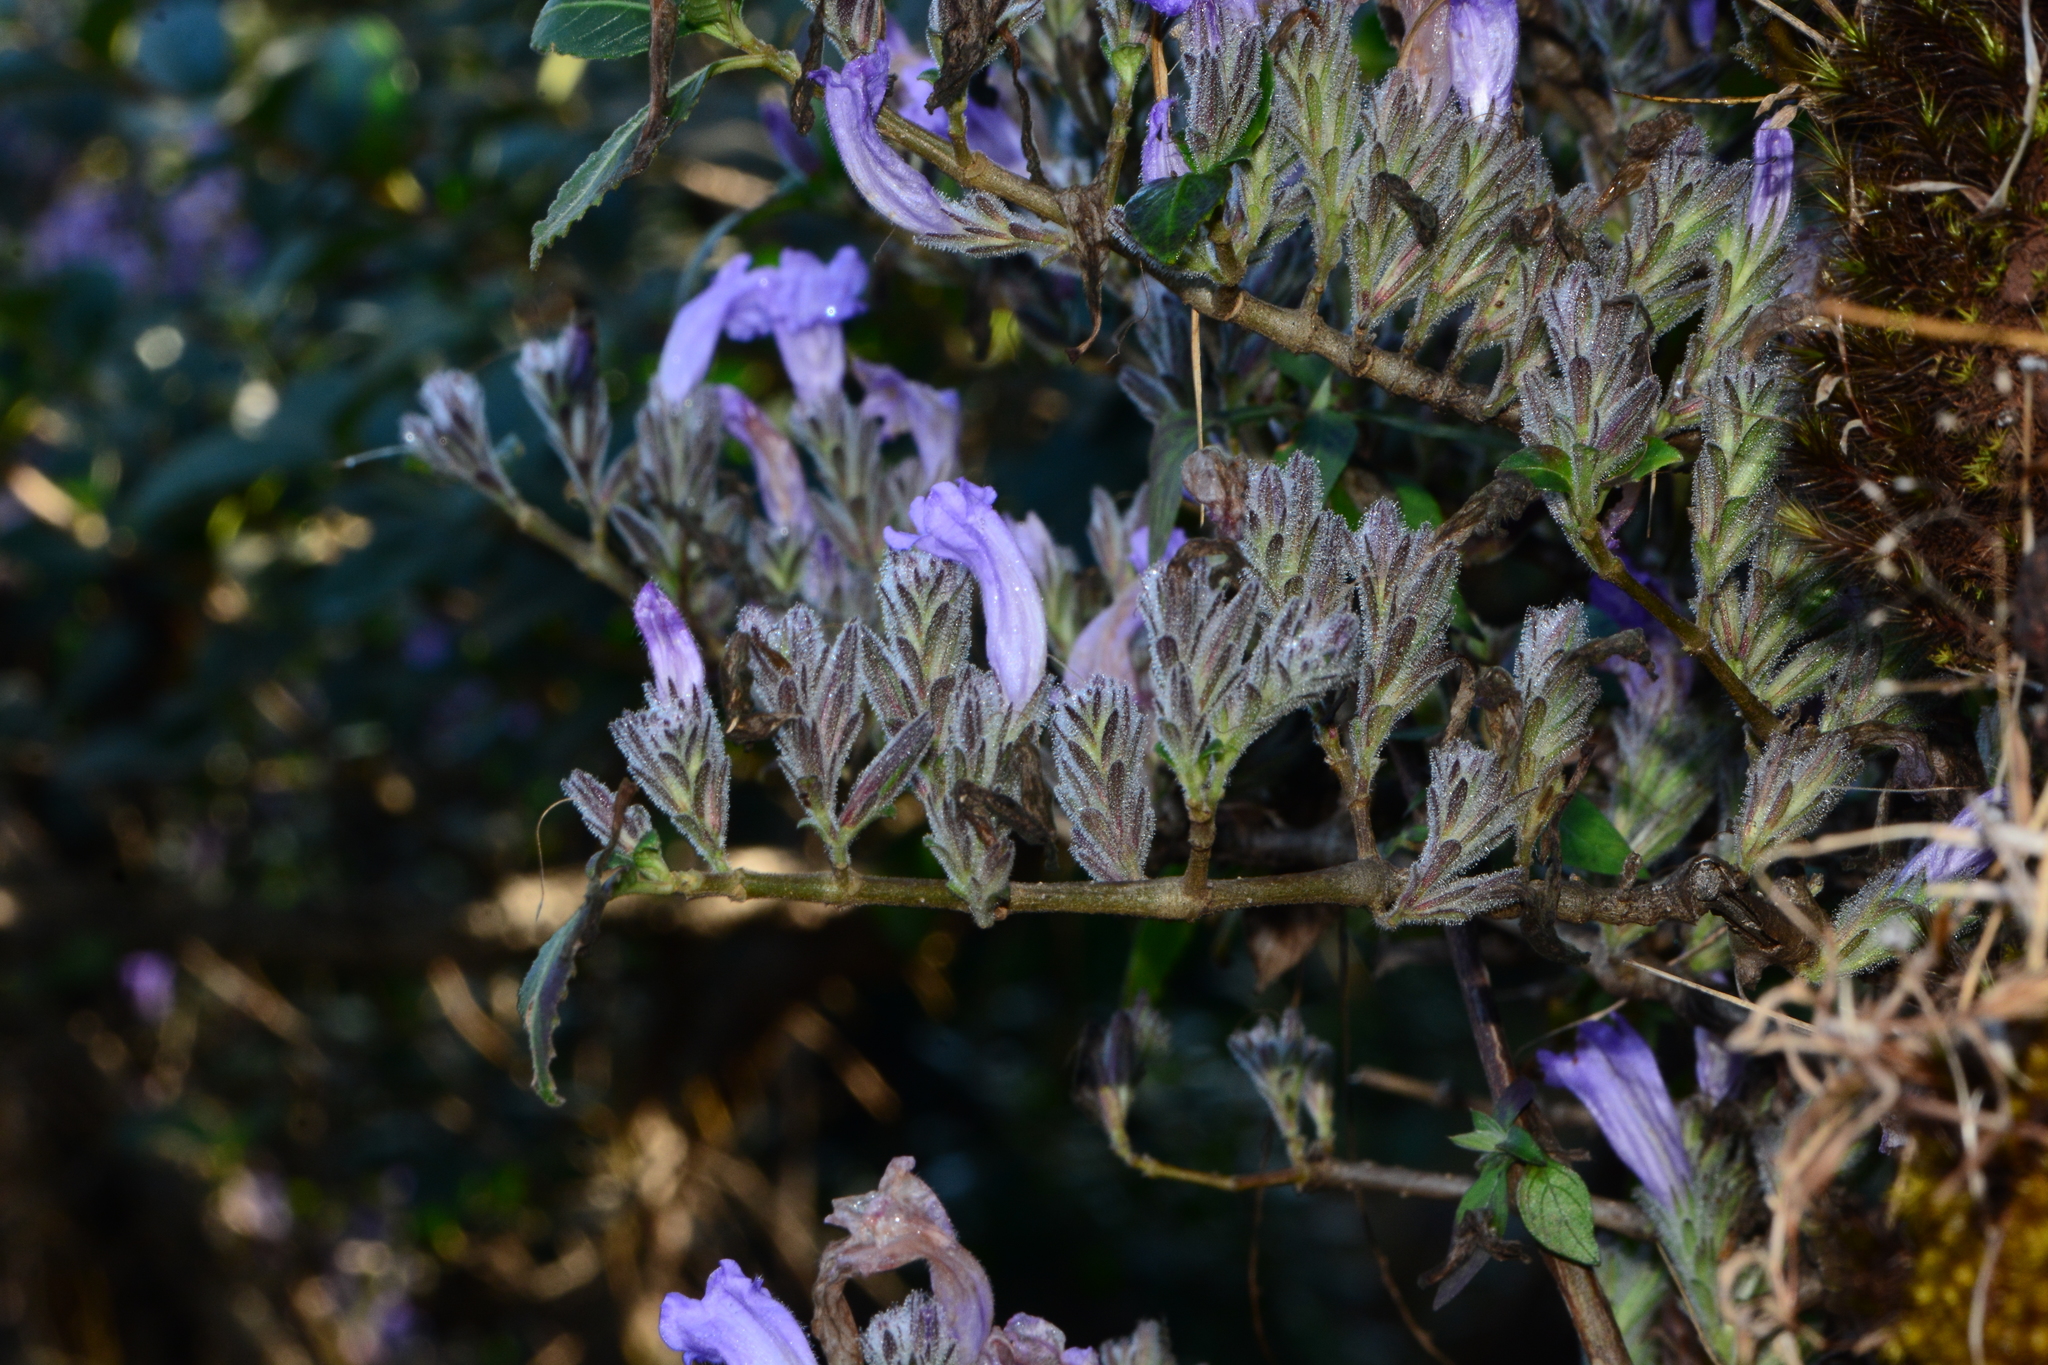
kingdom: Plantae
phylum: Tracheophyta
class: Magnoliopsida
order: Lamiales
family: Acanthaceae
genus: Strobilanthes
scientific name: Strobilanthes scrobiculata
